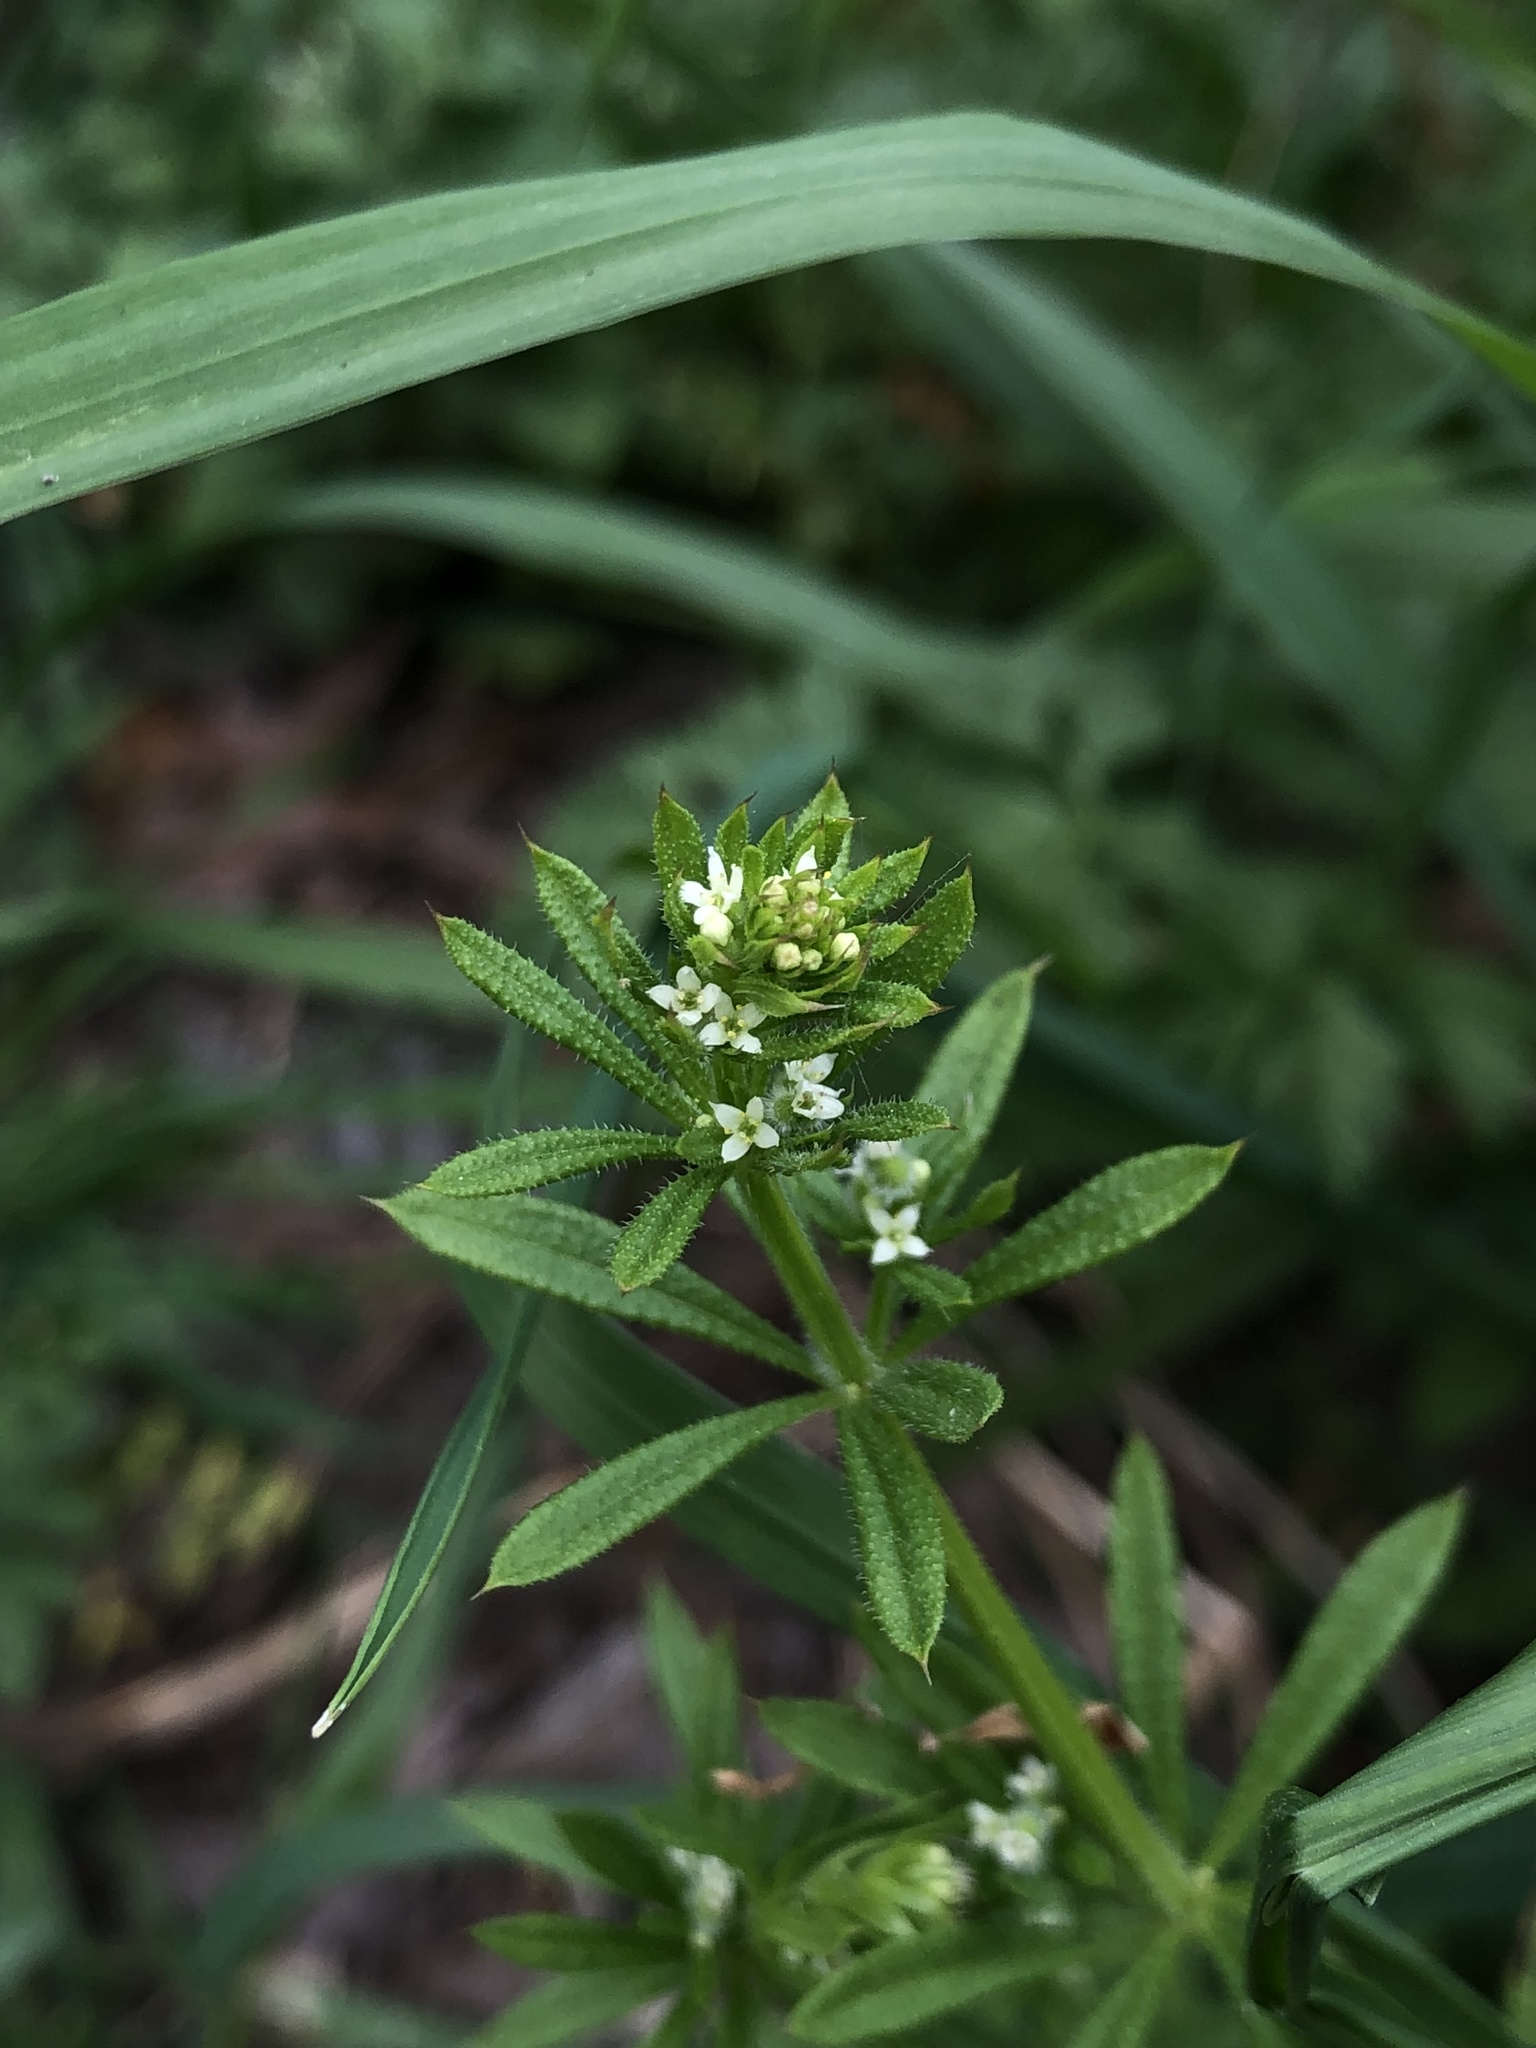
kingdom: Plantae
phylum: Tracheophyta
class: Magnoliopsida
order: Gentianales
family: Rubiaceae
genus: Galium
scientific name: Galium aparine
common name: Cleavers
